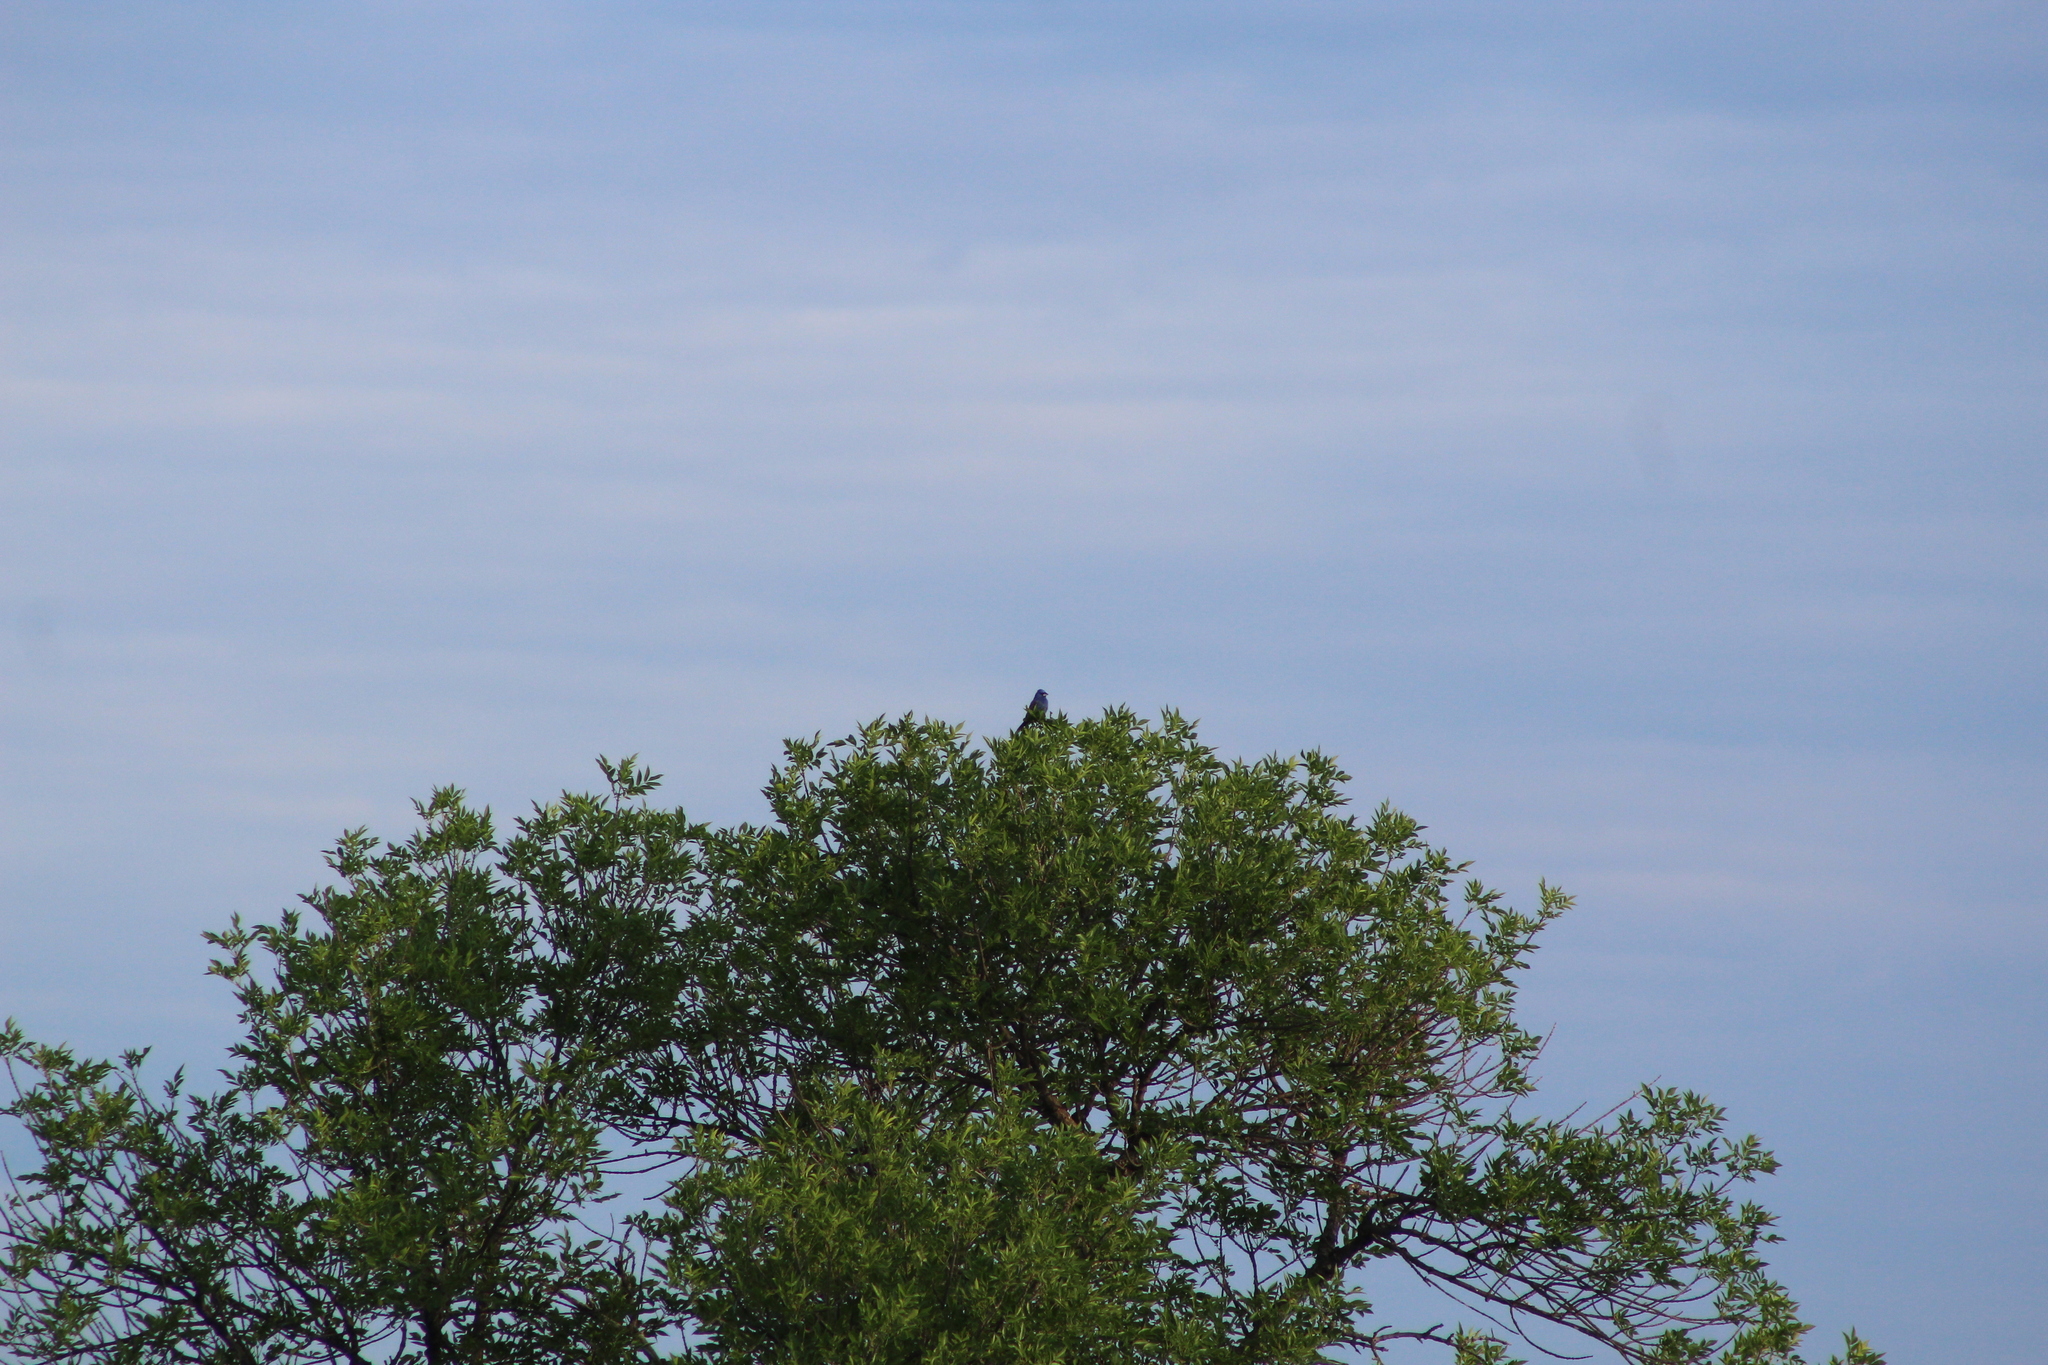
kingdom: Animalia
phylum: Chordata
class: Aves
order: Passeriformes
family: Cardinalidae
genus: Passerina
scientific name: Passerina caerulea
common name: Blue grosbeak
